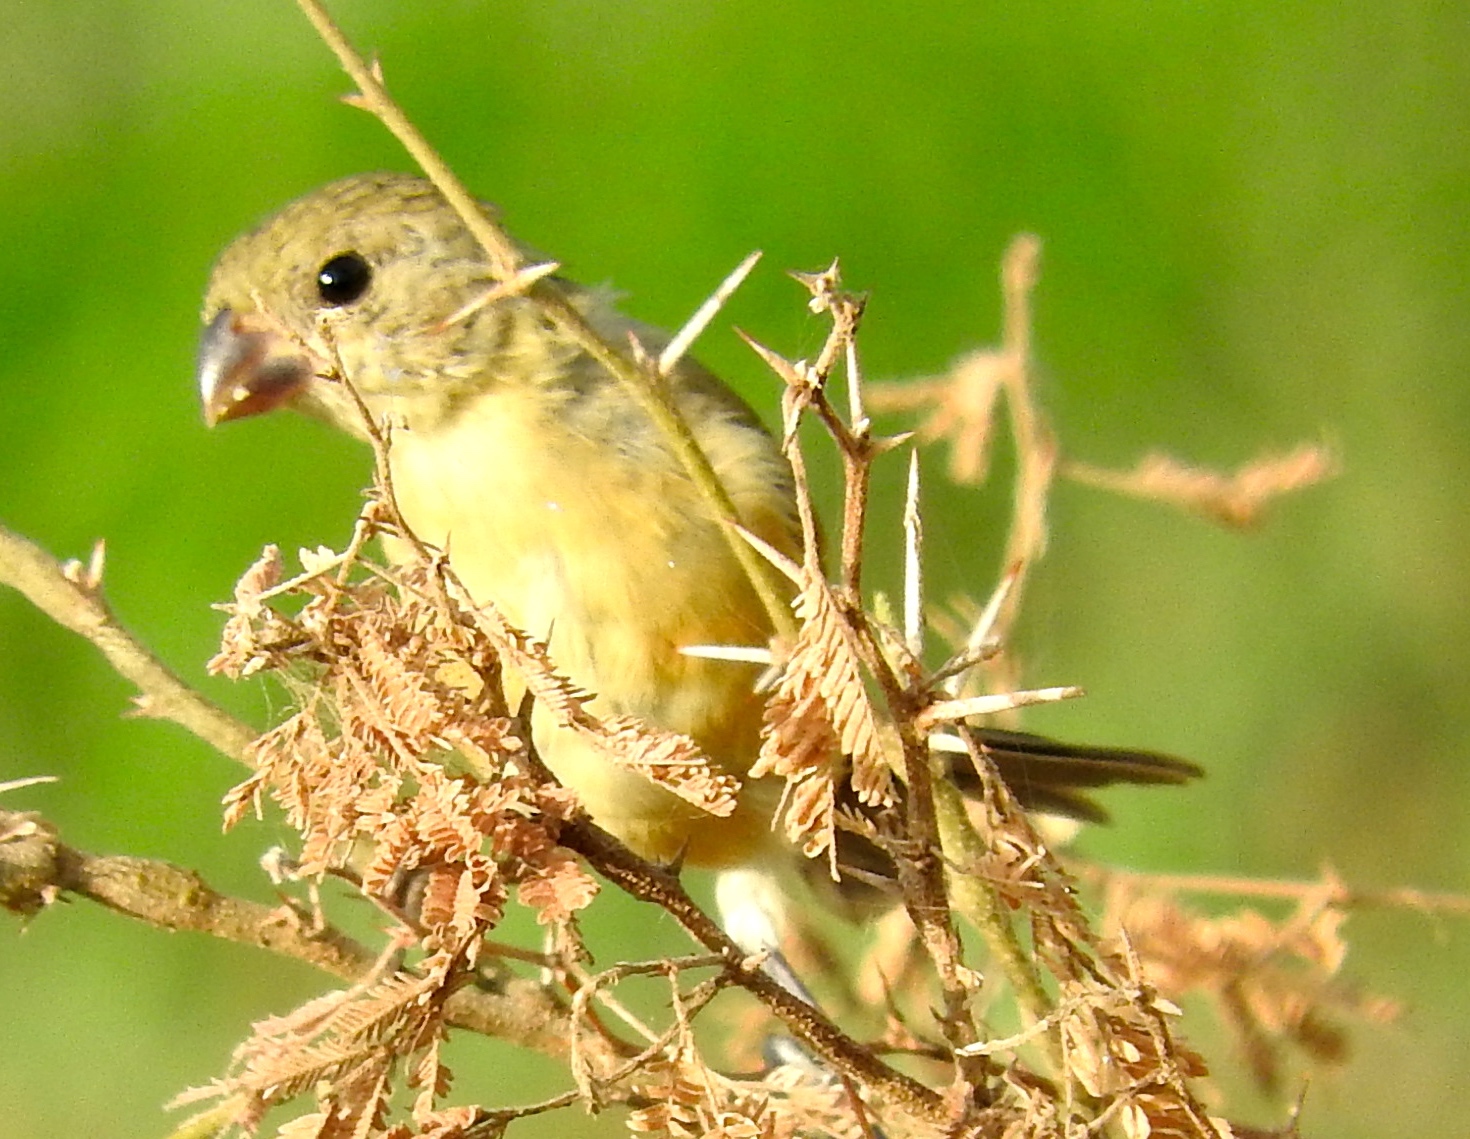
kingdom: Animalia
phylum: Chordata
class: Aves
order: Passeriformes
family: Thraupidae
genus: Sporophila
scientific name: Sporophila torqueola
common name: White-collared seedeater
